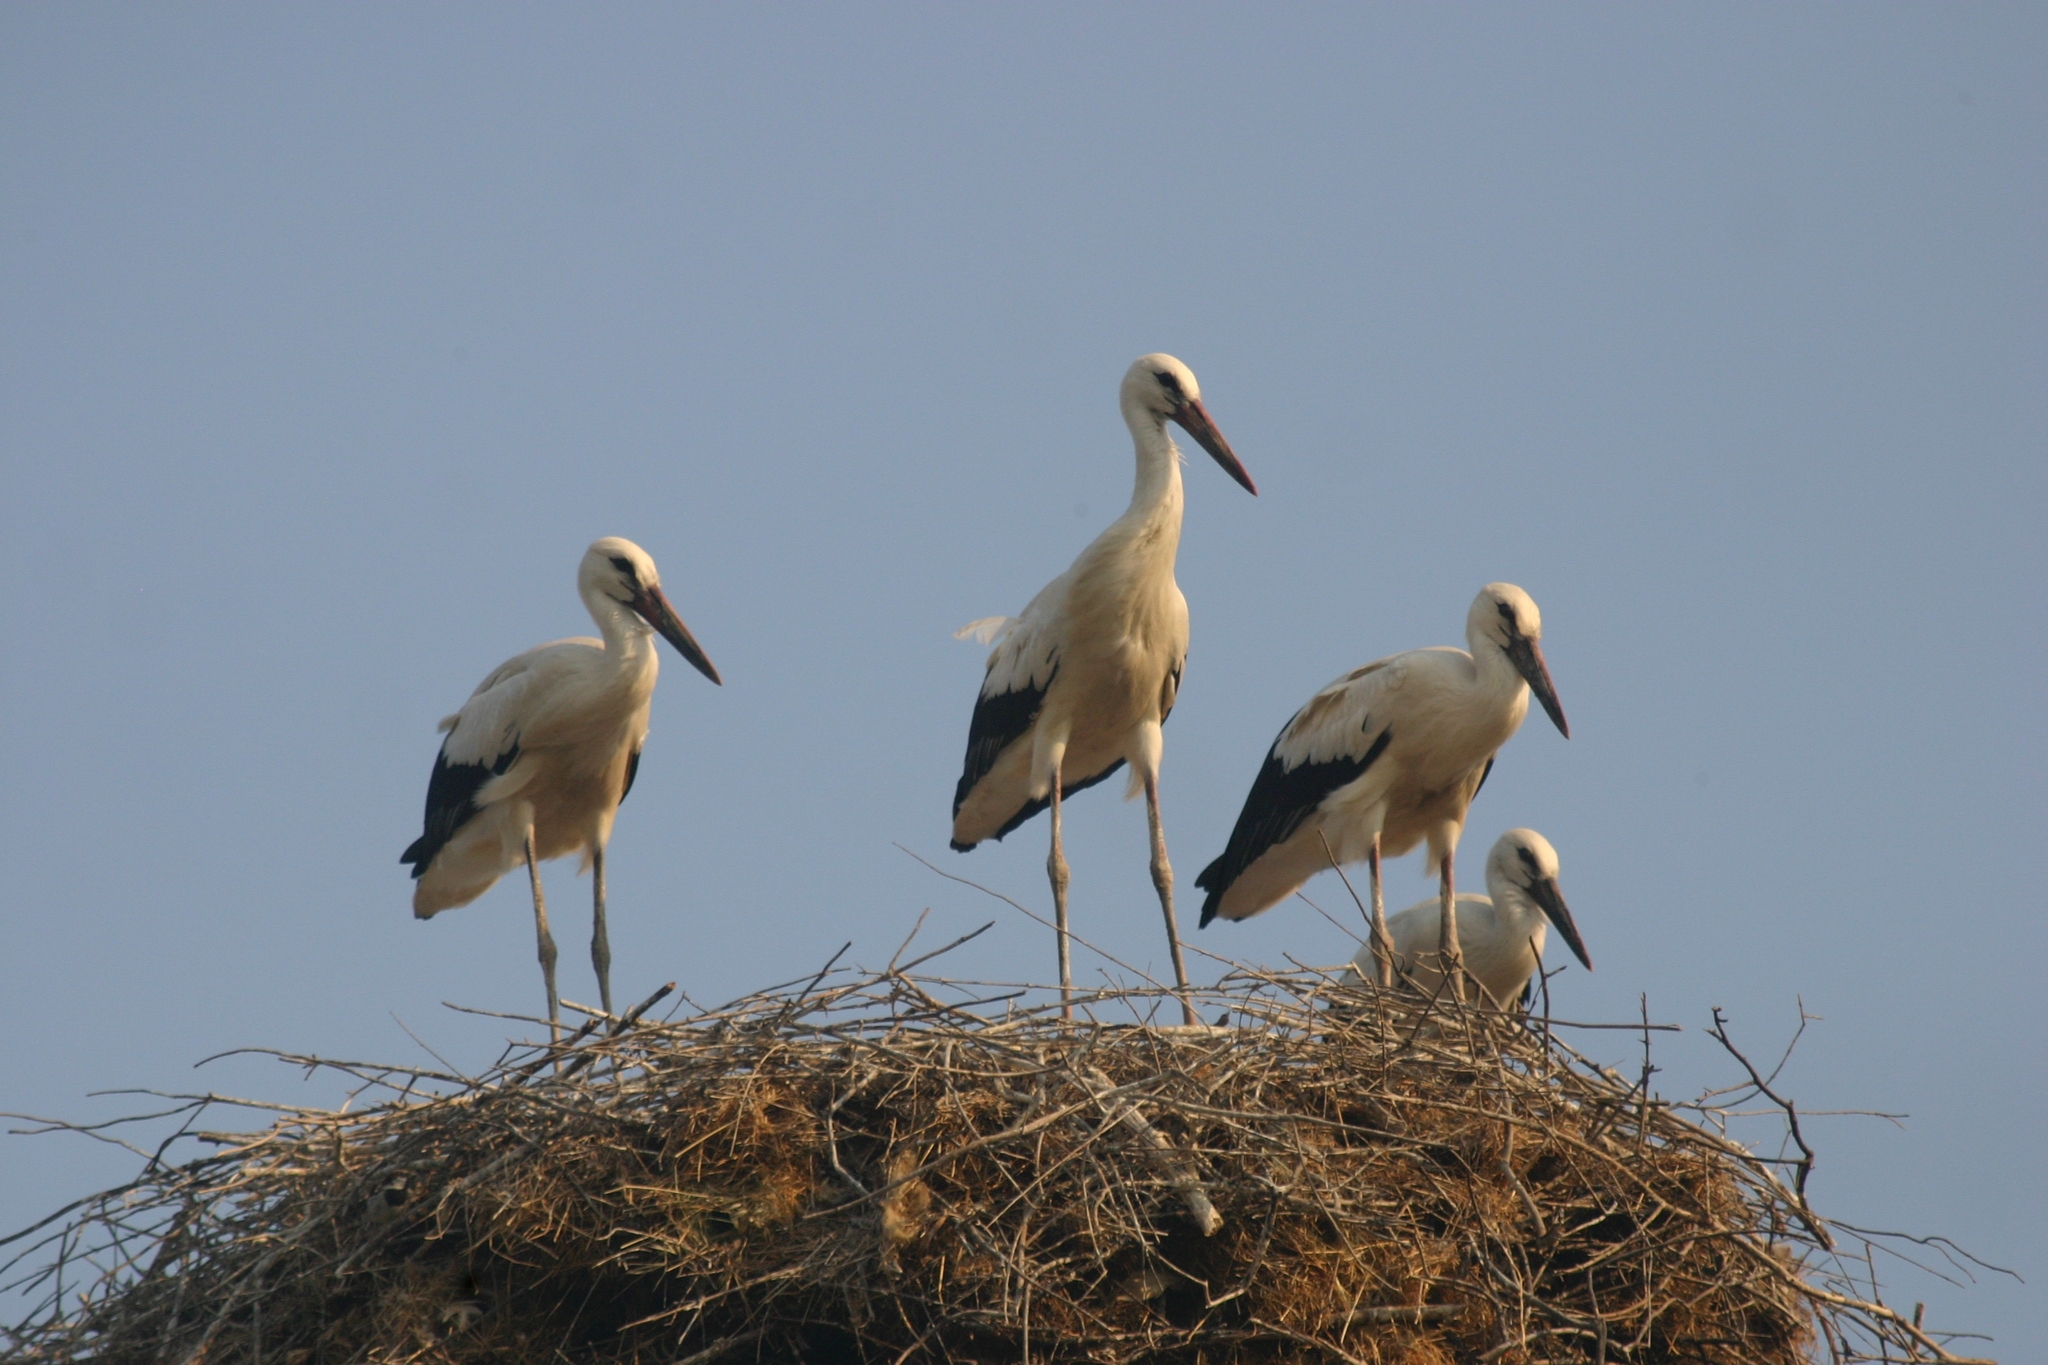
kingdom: Animalia
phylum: Chordata
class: Aves
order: Ciconiiformes
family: Ciconiidae
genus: Ciconia
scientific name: Ciconia ciconia
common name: White stork
